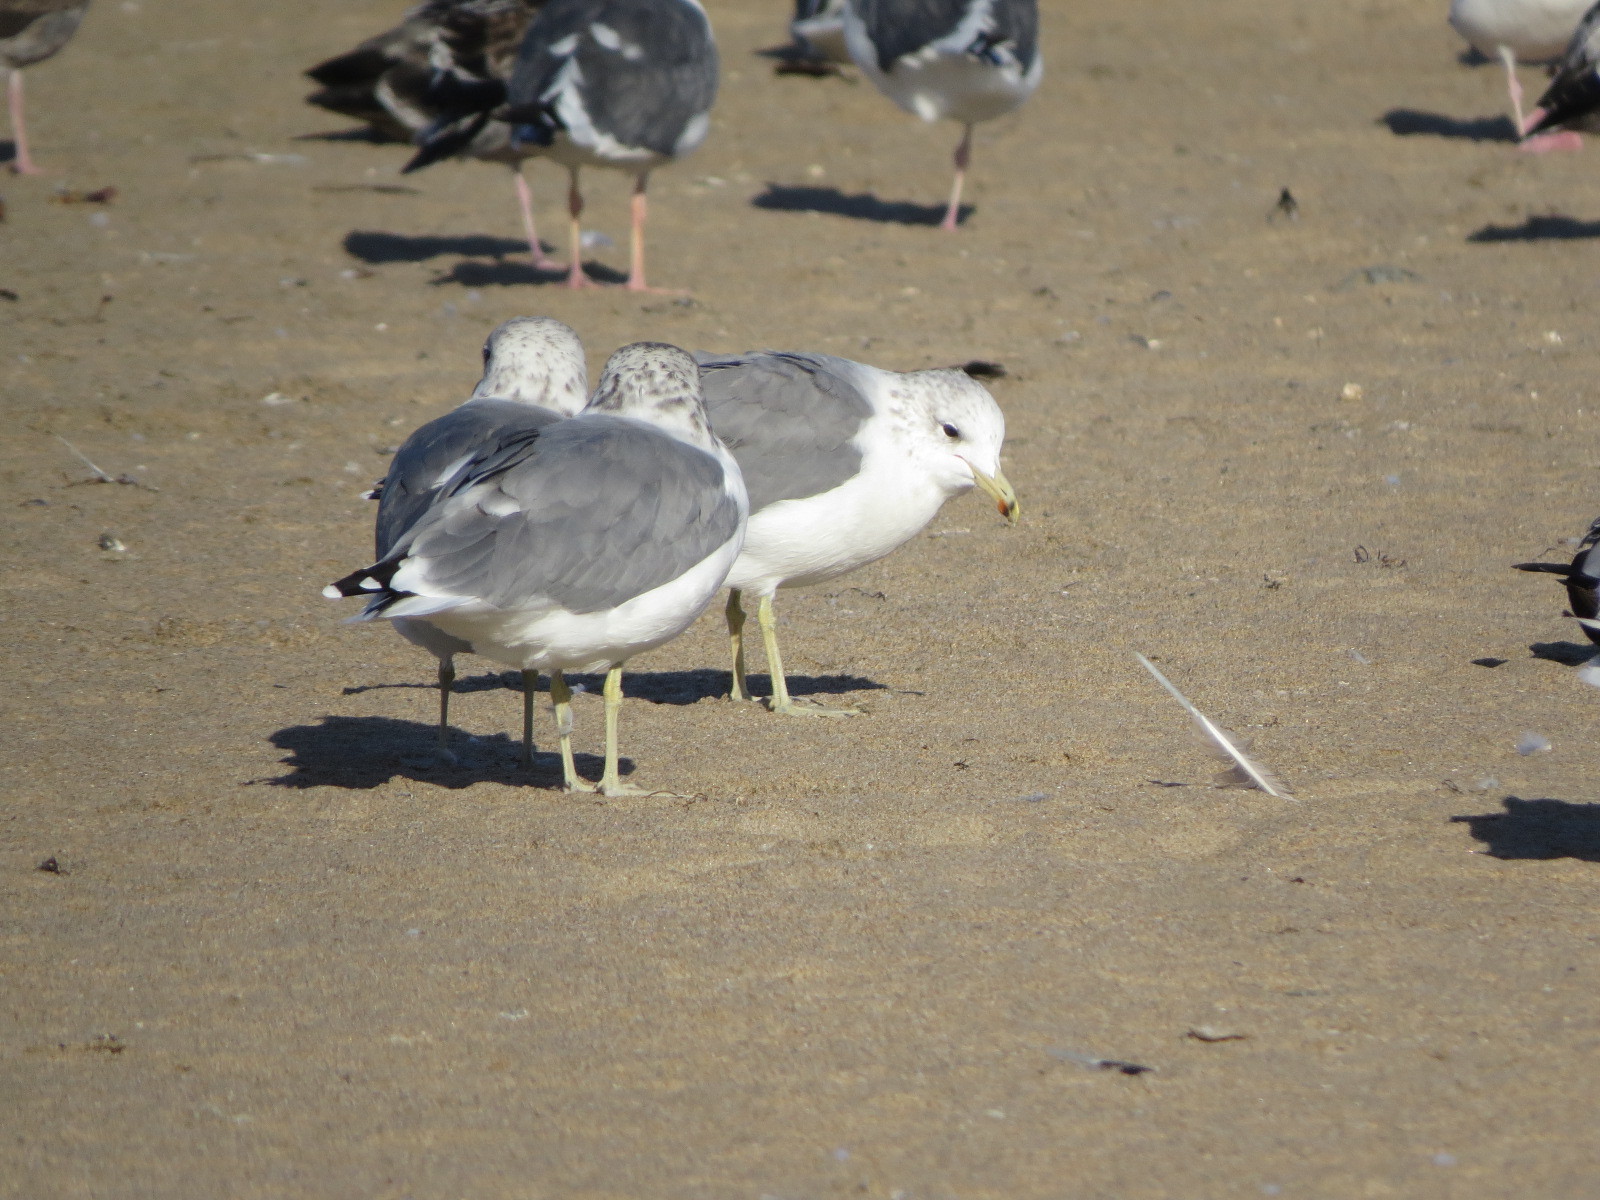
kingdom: Animalia
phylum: Chordata
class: Aves
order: Charadriiformes
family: Laridae
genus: Larus
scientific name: Larus californicus
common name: California gull
